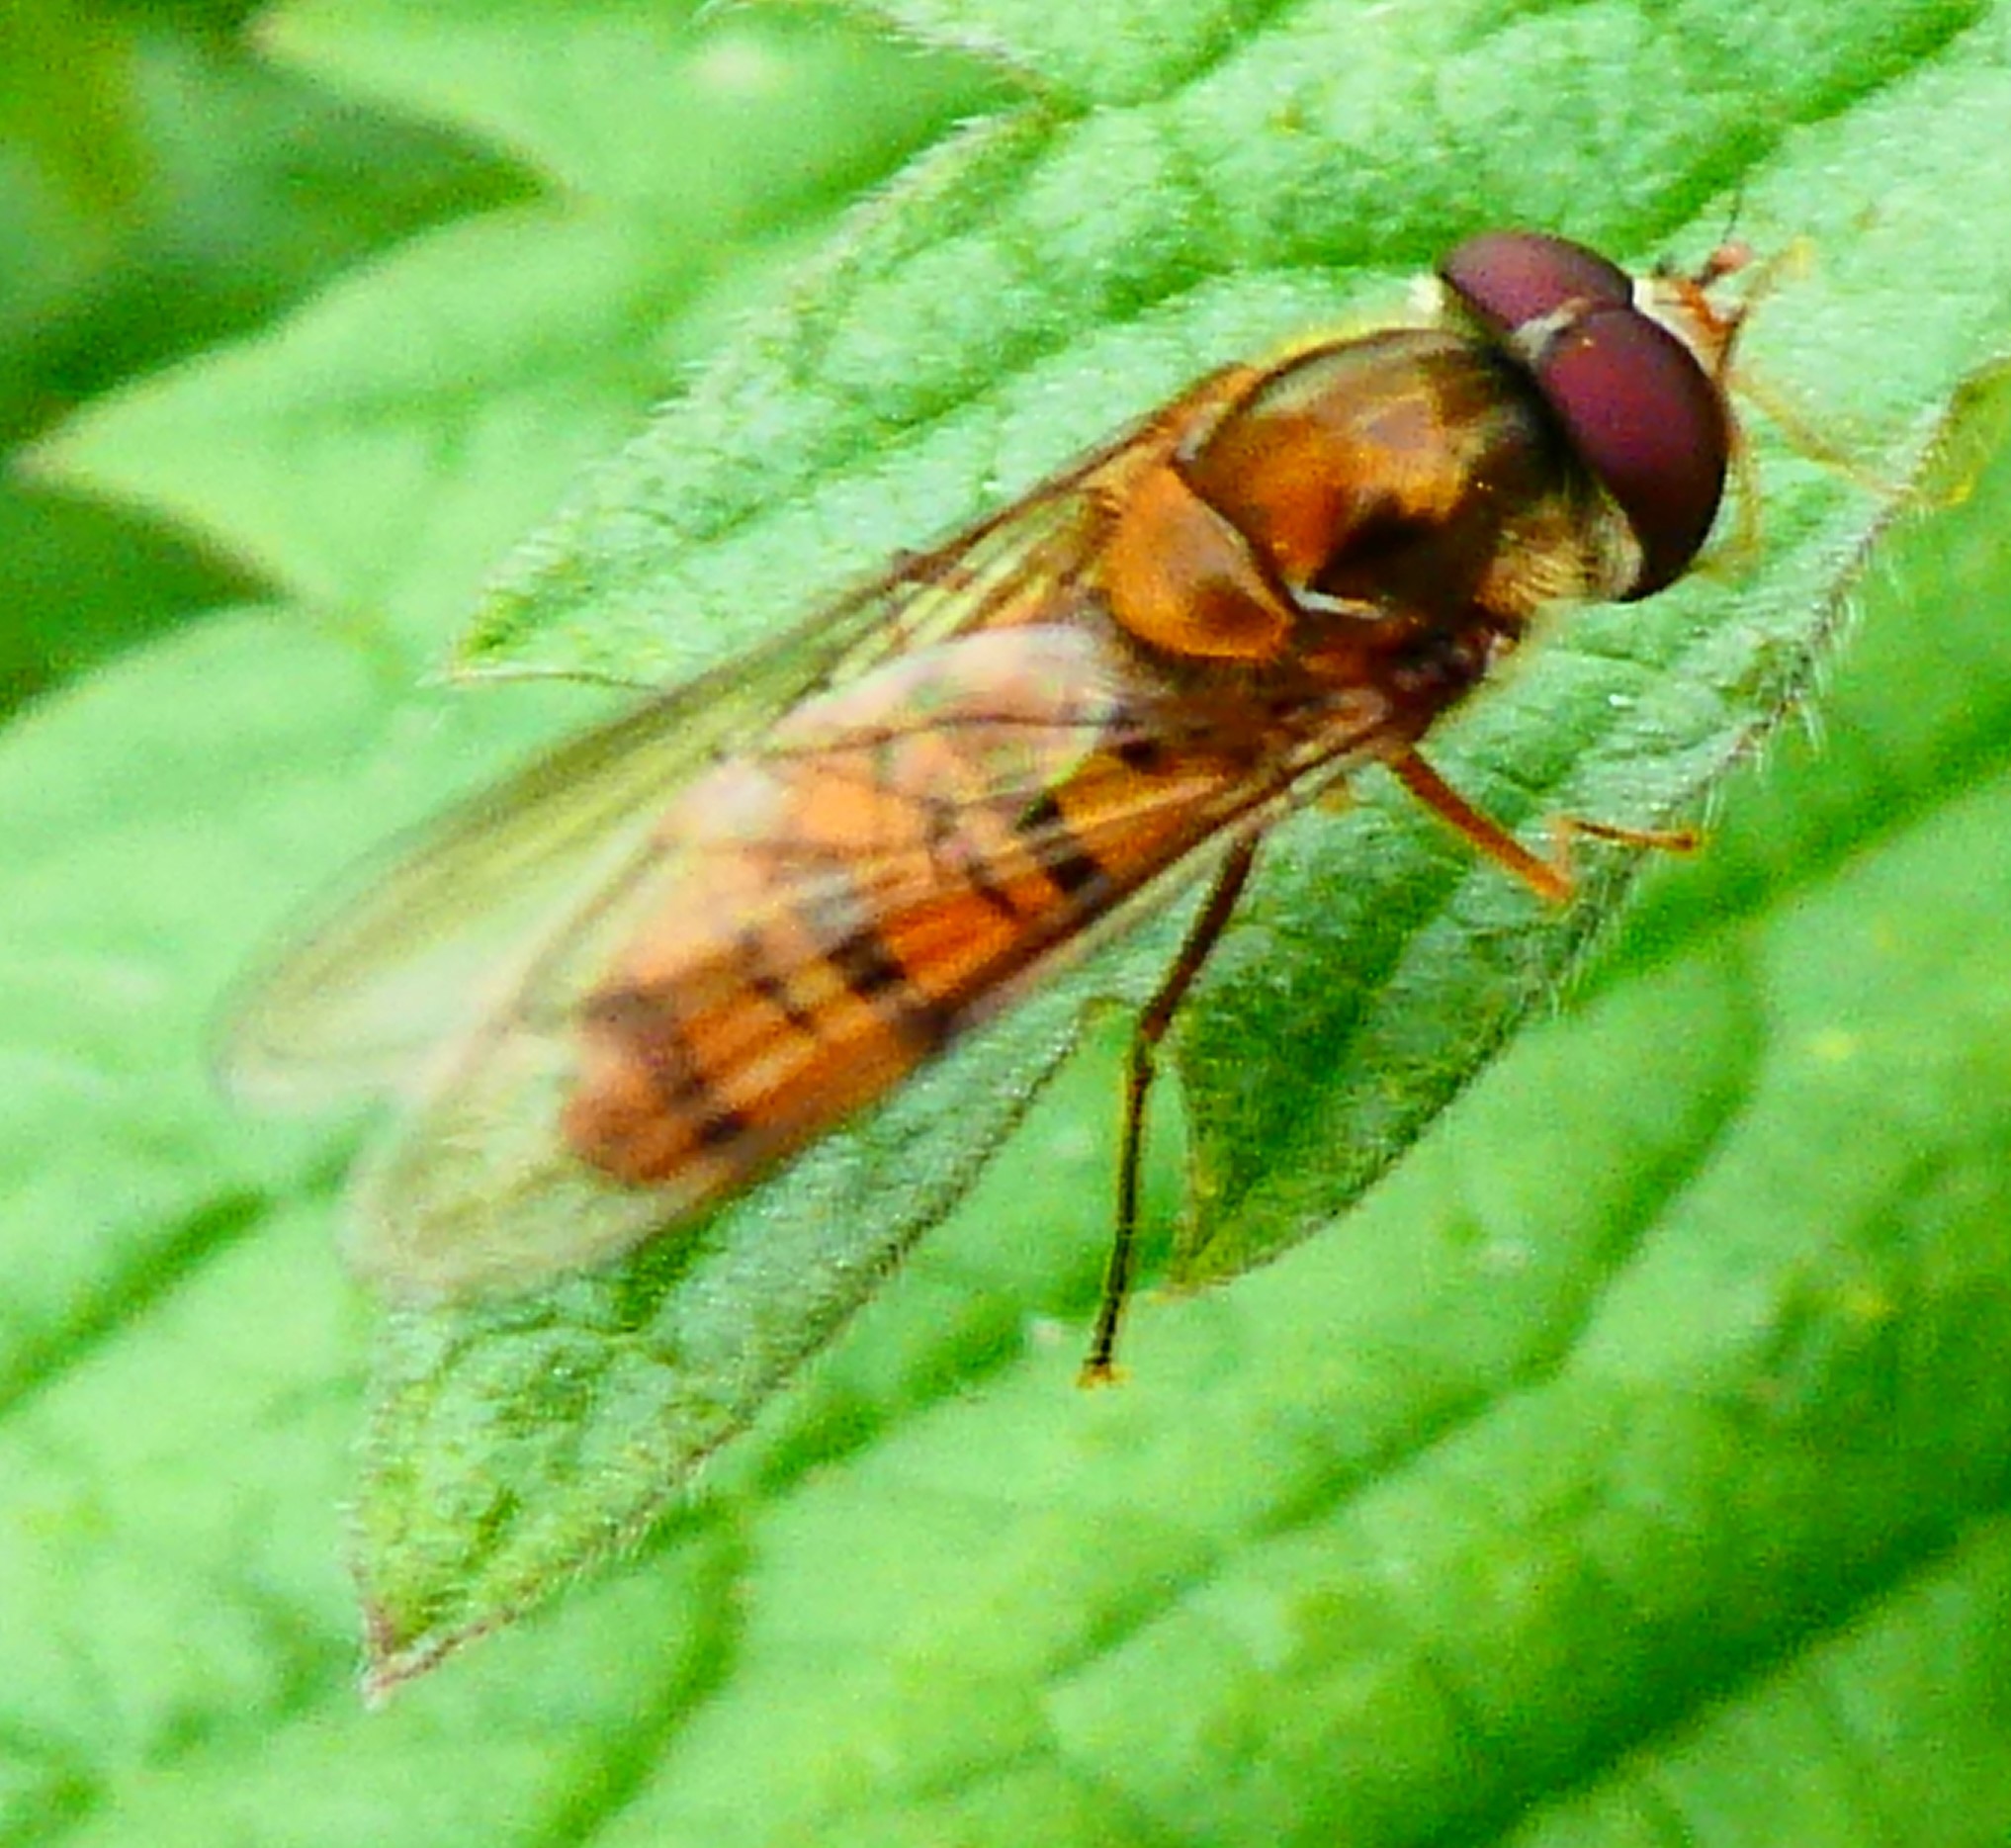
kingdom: Animalia
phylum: Arthropoda
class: Insecta
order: Diptera
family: Syrphidae
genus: Episyrphus
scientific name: Episyrphus balteatus
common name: Marmalade hoverfly
